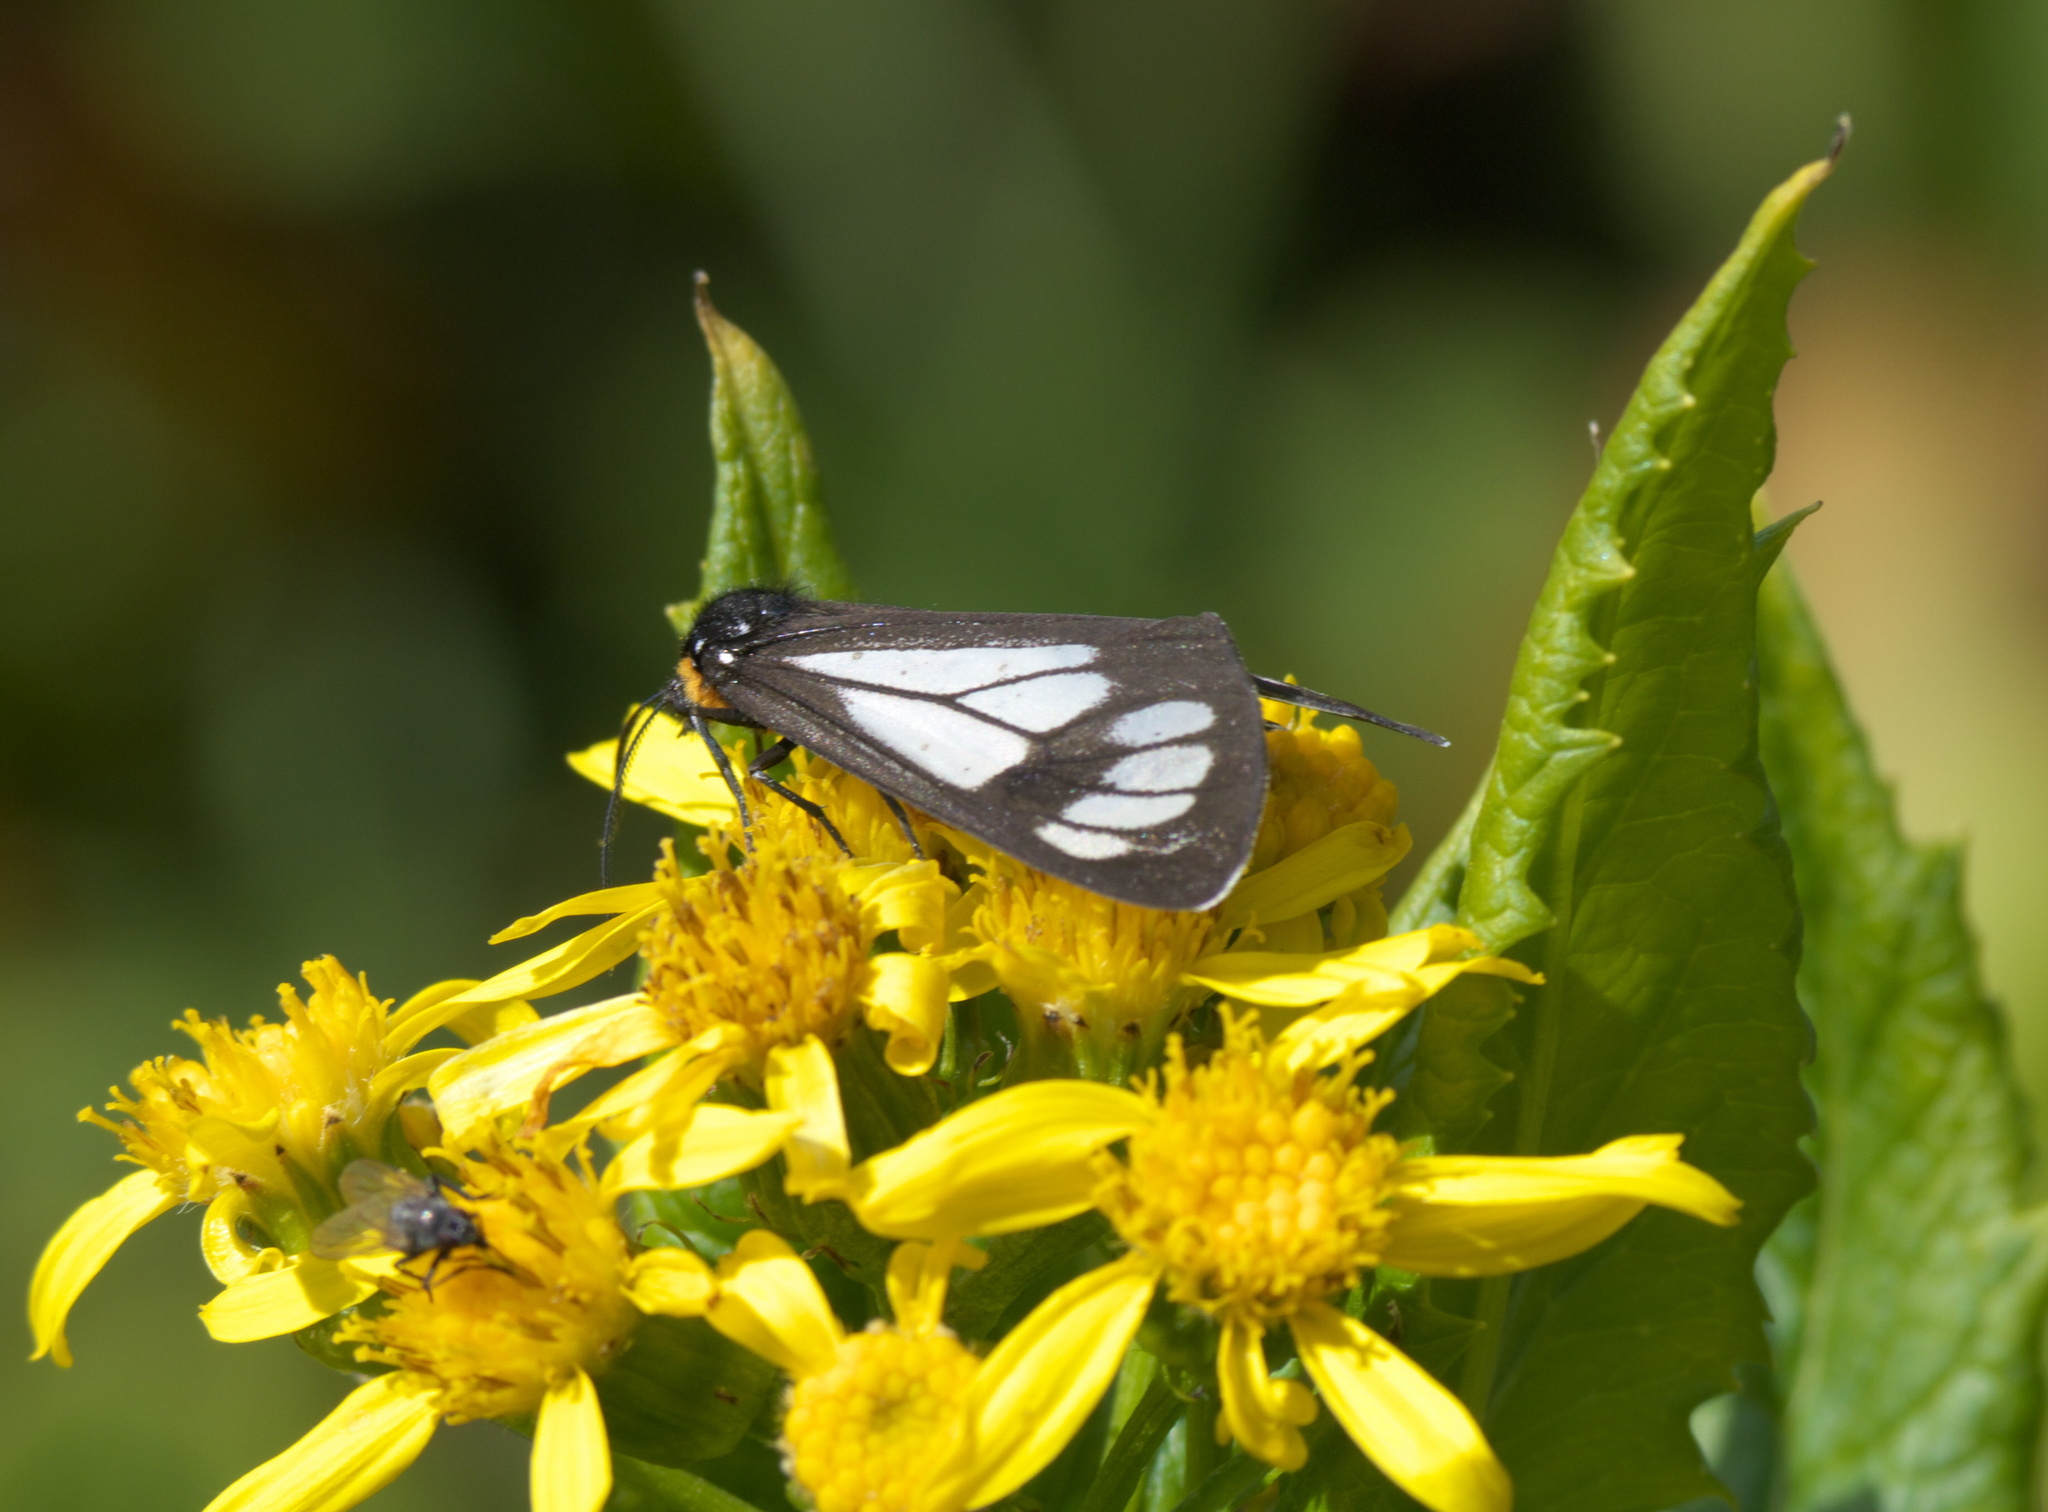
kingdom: Animalia
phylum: Arthropoda
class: Insecta
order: Lepidoptera
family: Erebidae
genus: Gnophaela
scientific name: Gnophaela vermiculata
